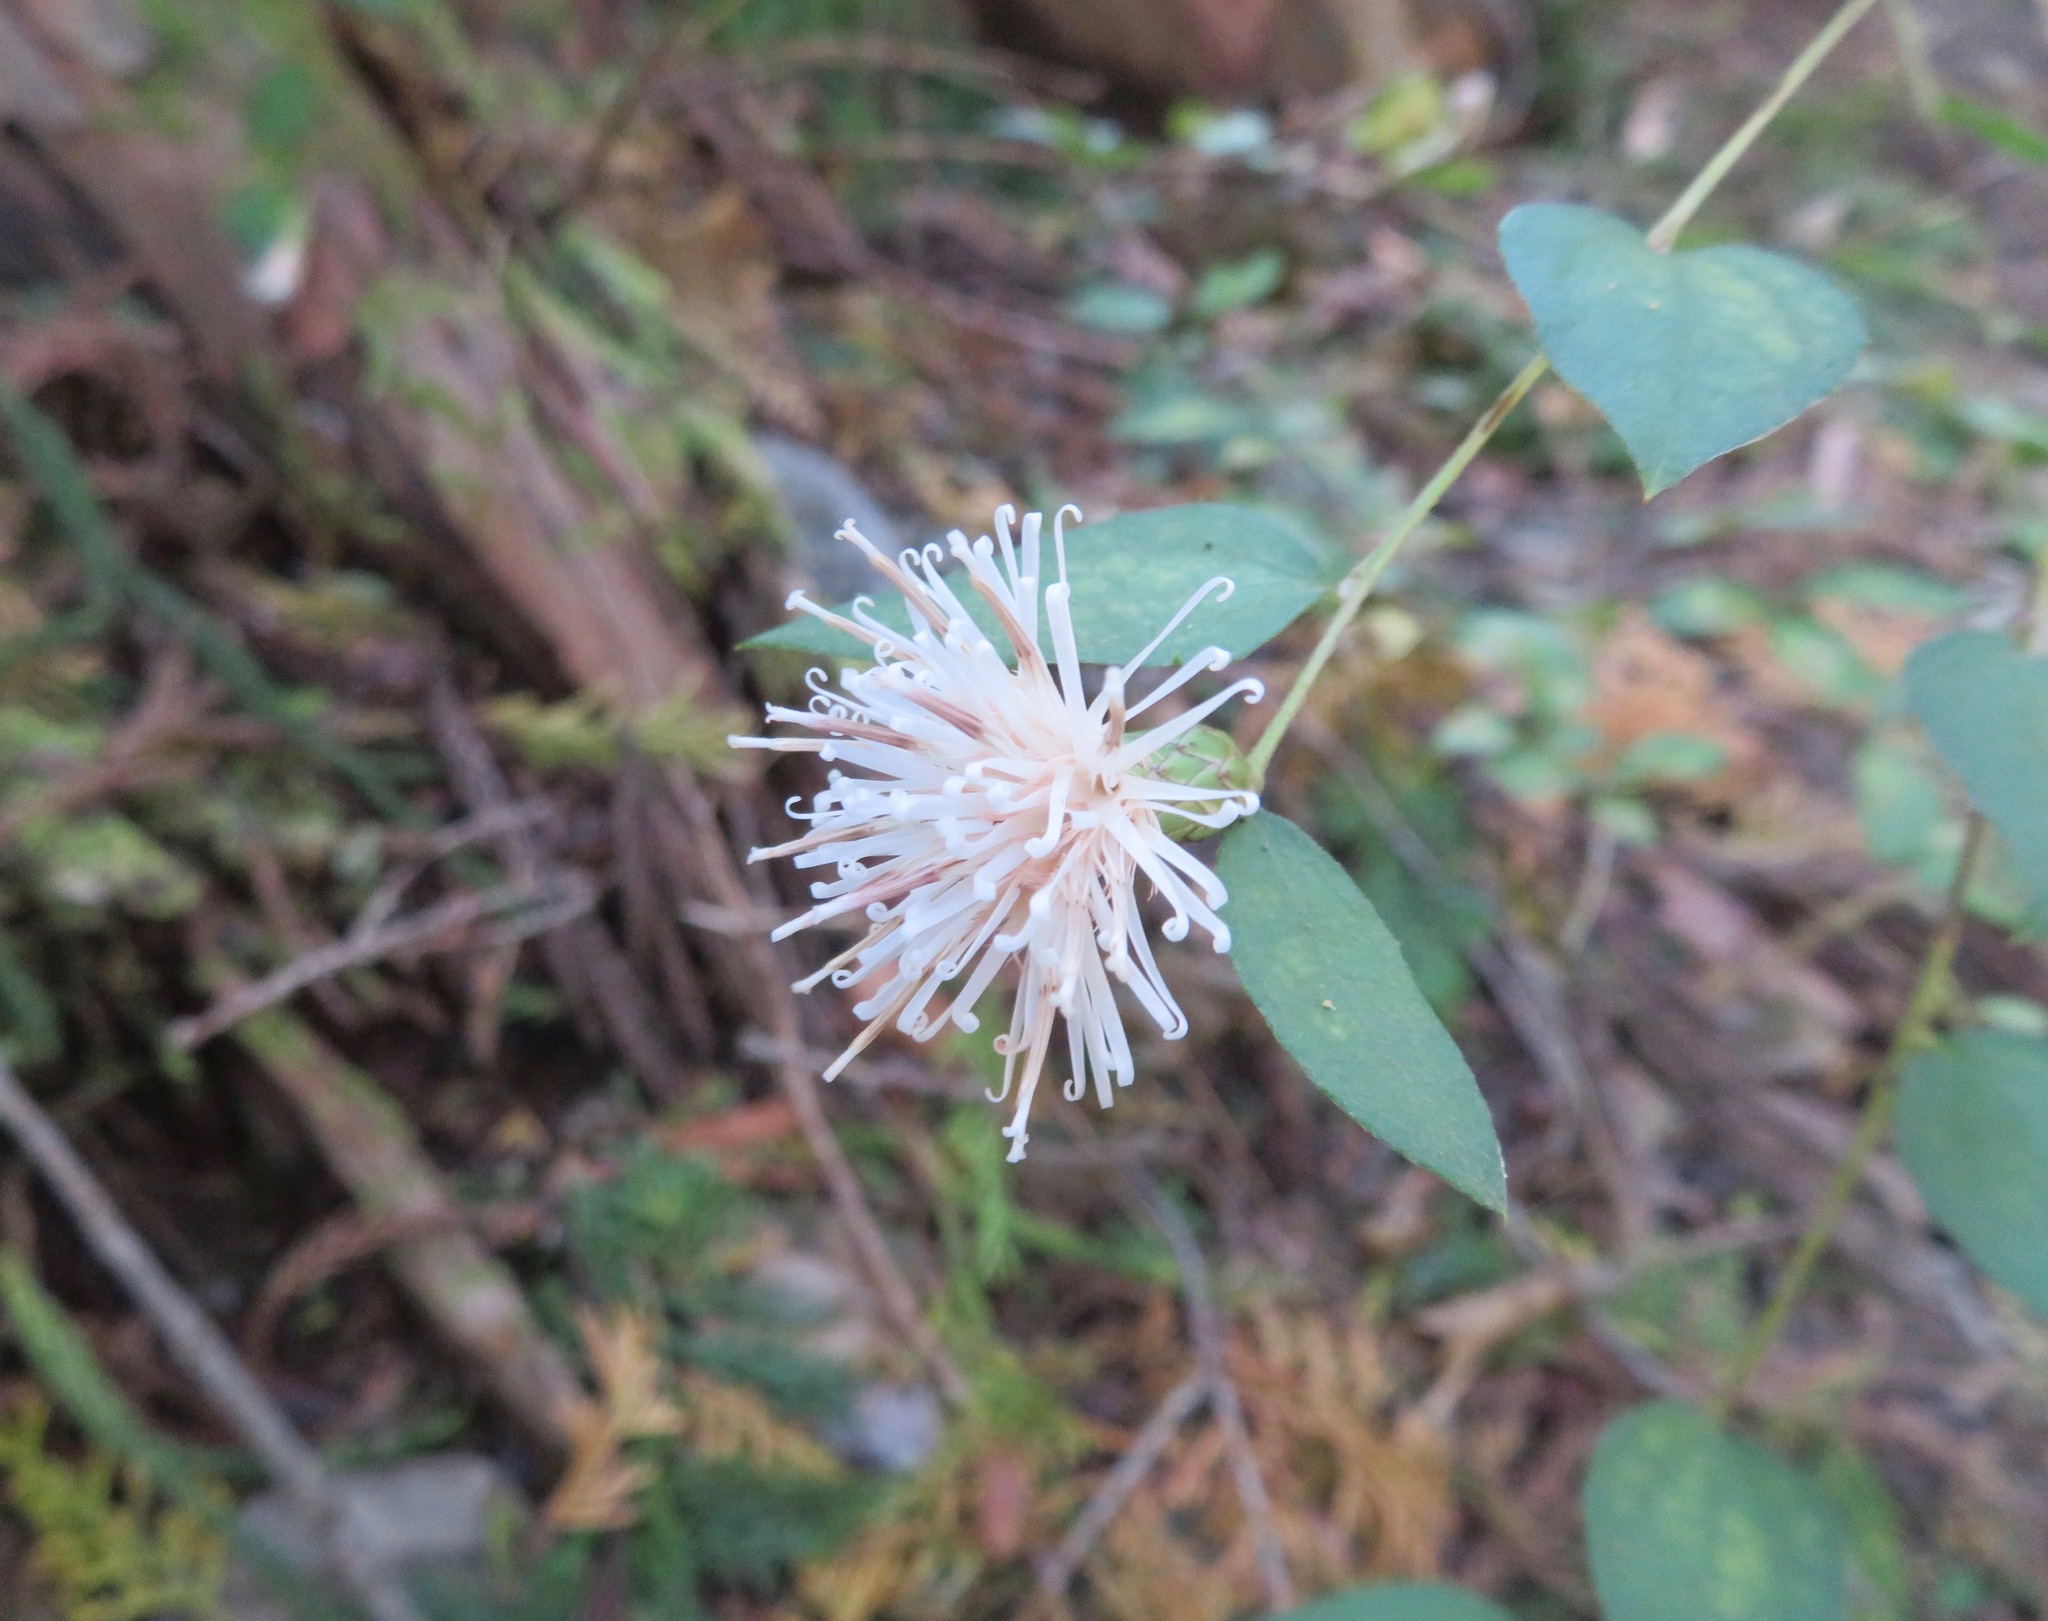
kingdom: Plantae
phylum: Tracheophyta
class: Magnoliopsida
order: Asterales
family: Asteraceae
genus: Pertya
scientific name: Pertya scandens
